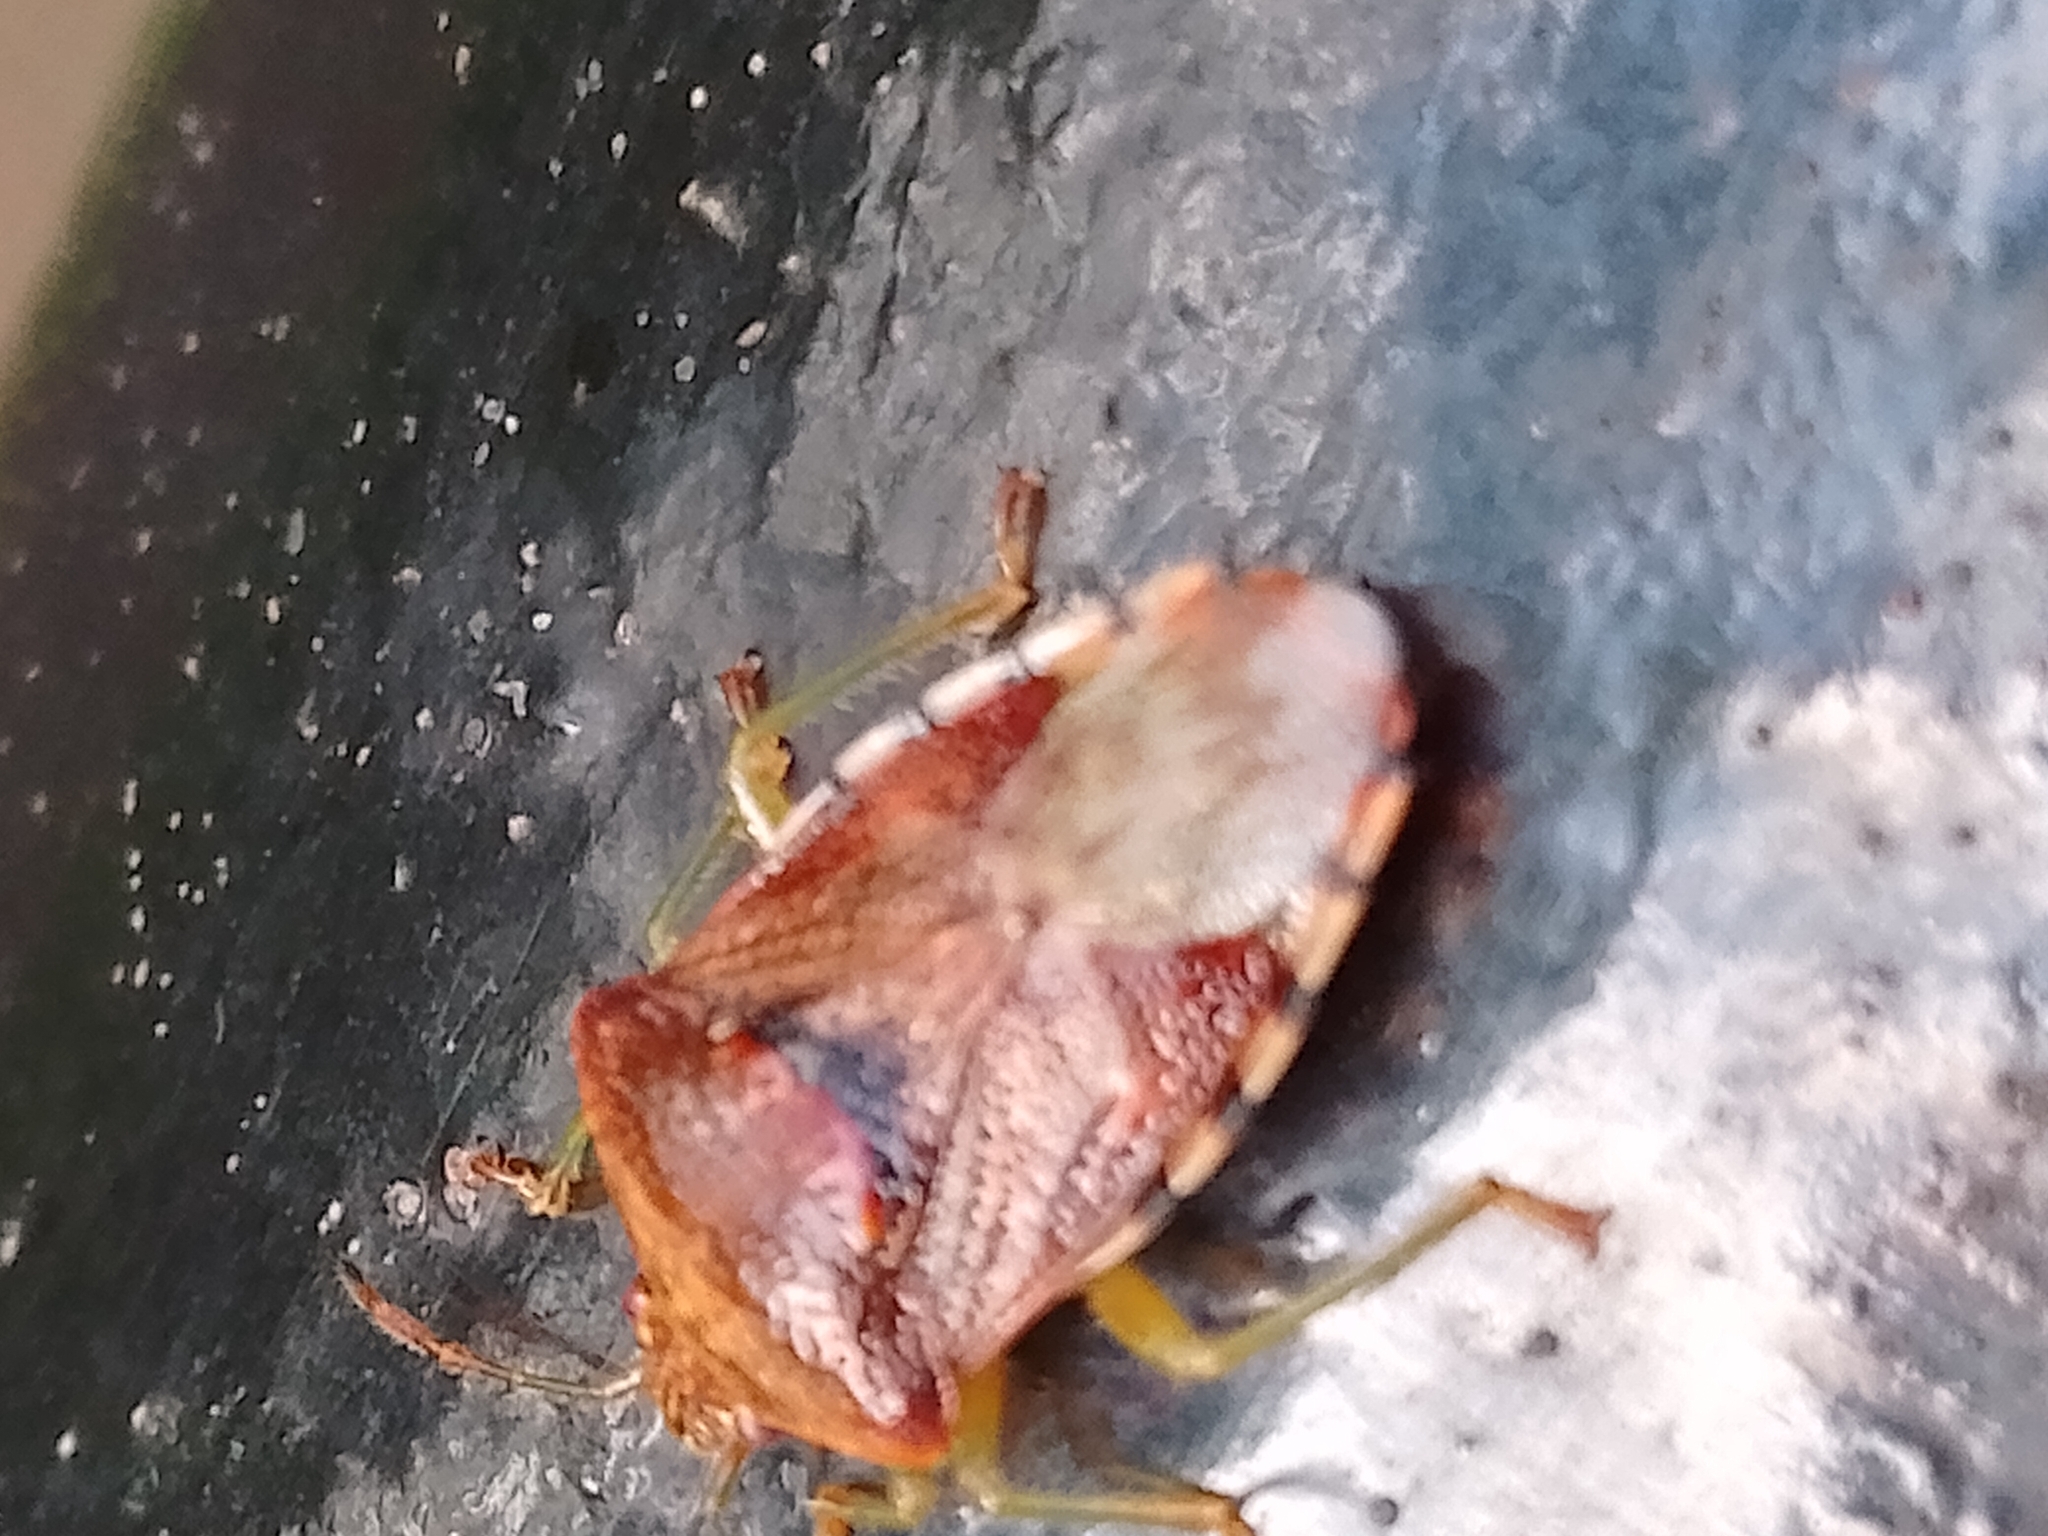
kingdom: Animalia
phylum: Arthropoda
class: Insecta
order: Hemiptera
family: Acanthosomatidae
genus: Elasmucha
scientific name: Elasmucha grisea
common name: Parent bug
